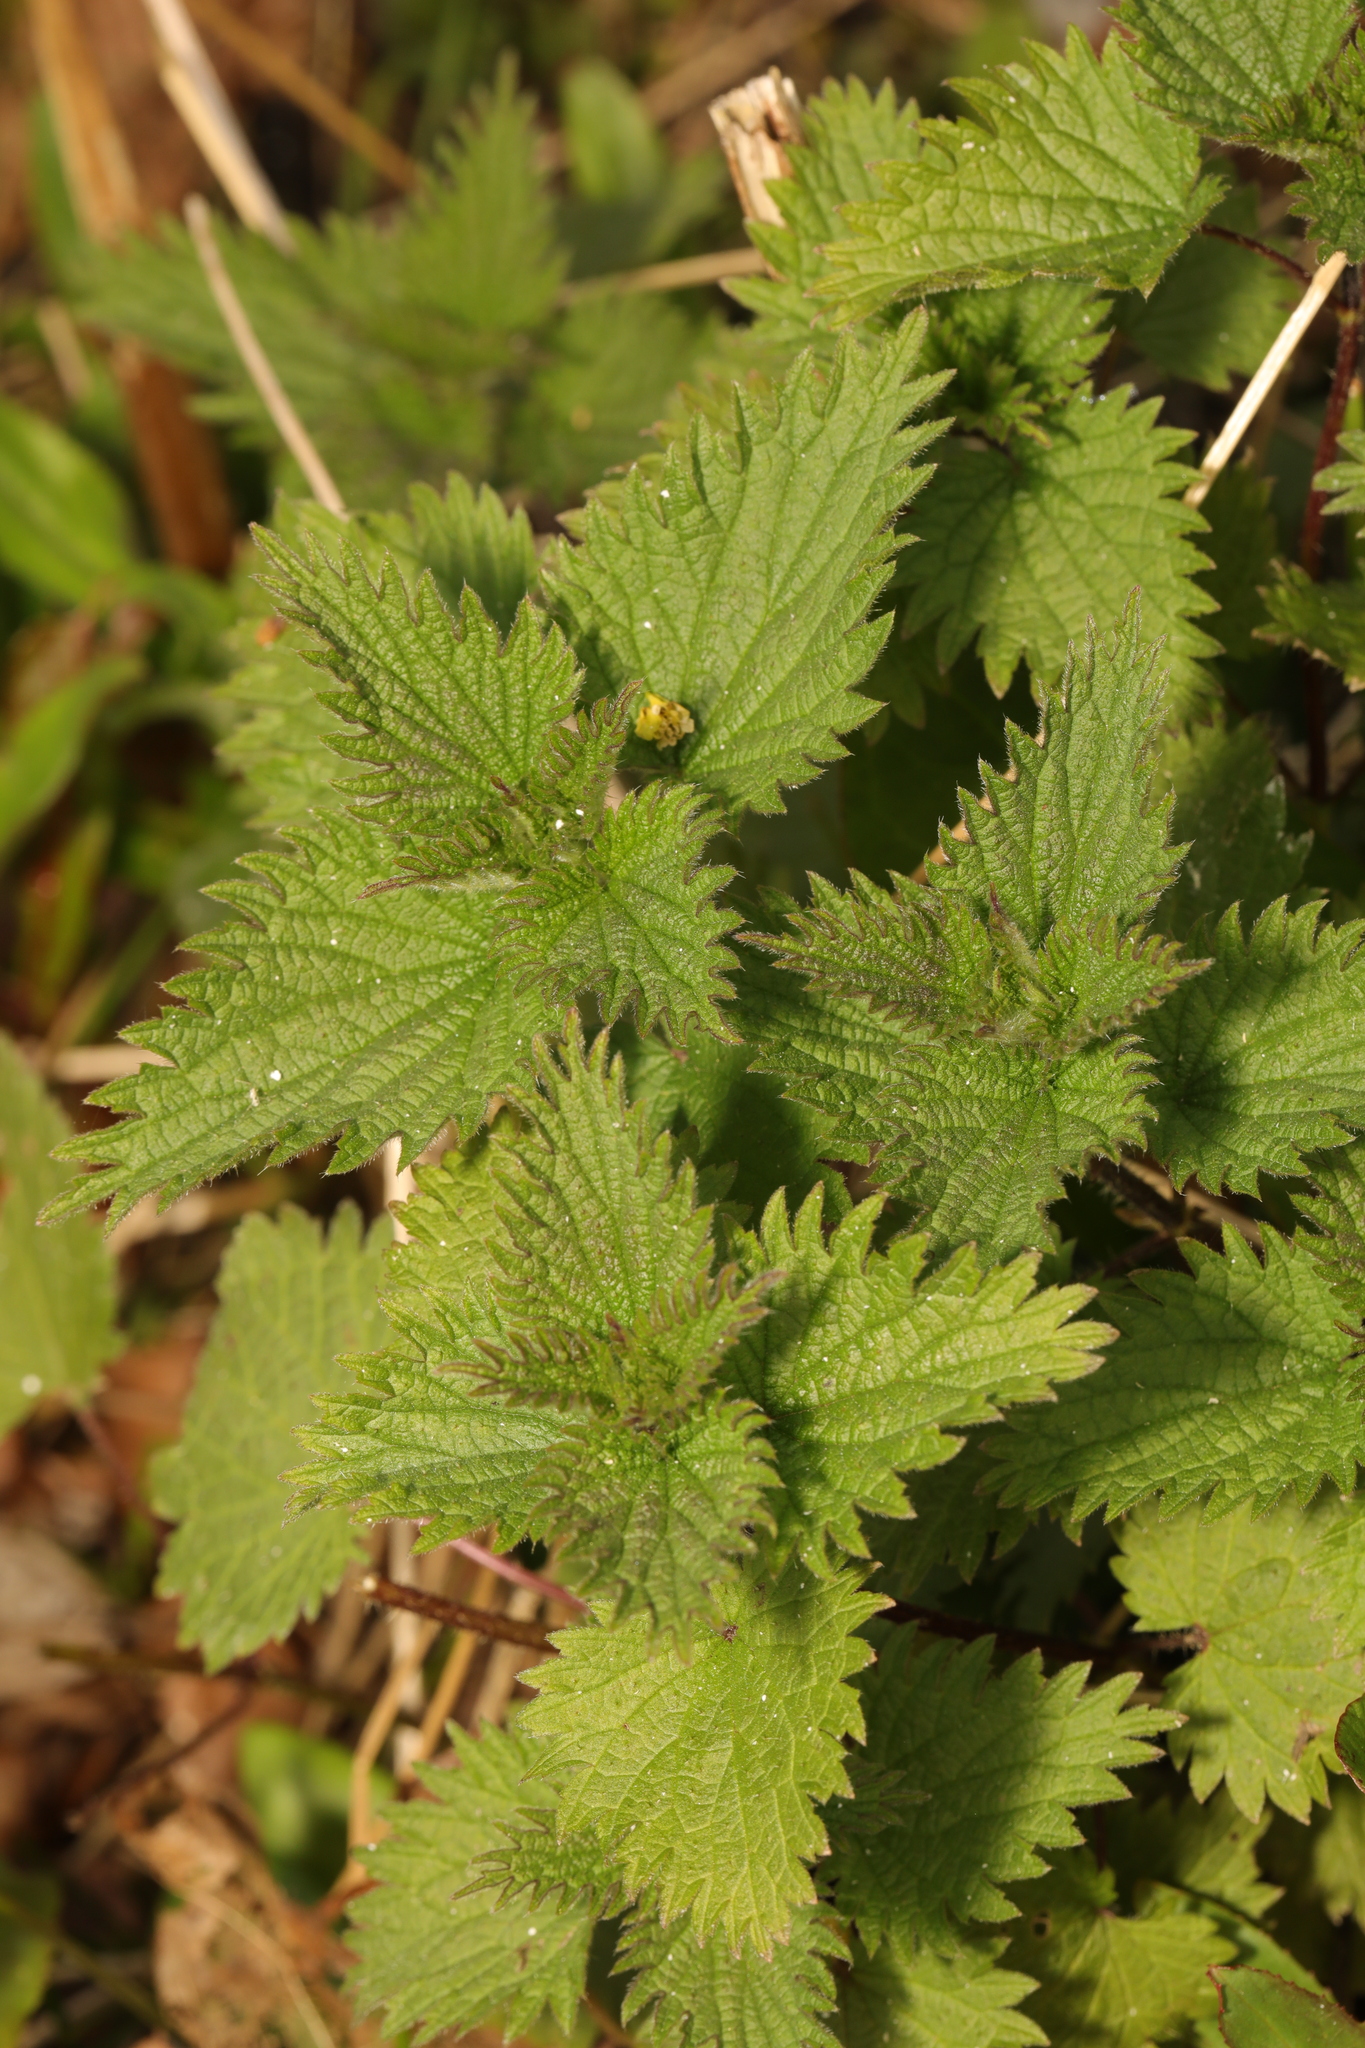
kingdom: Plantae
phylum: Tracheophyta
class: Magnoliopsida
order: Rosales
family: Urticaceae
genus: Urtica
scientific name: Urtica dioica
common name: Common nettle
